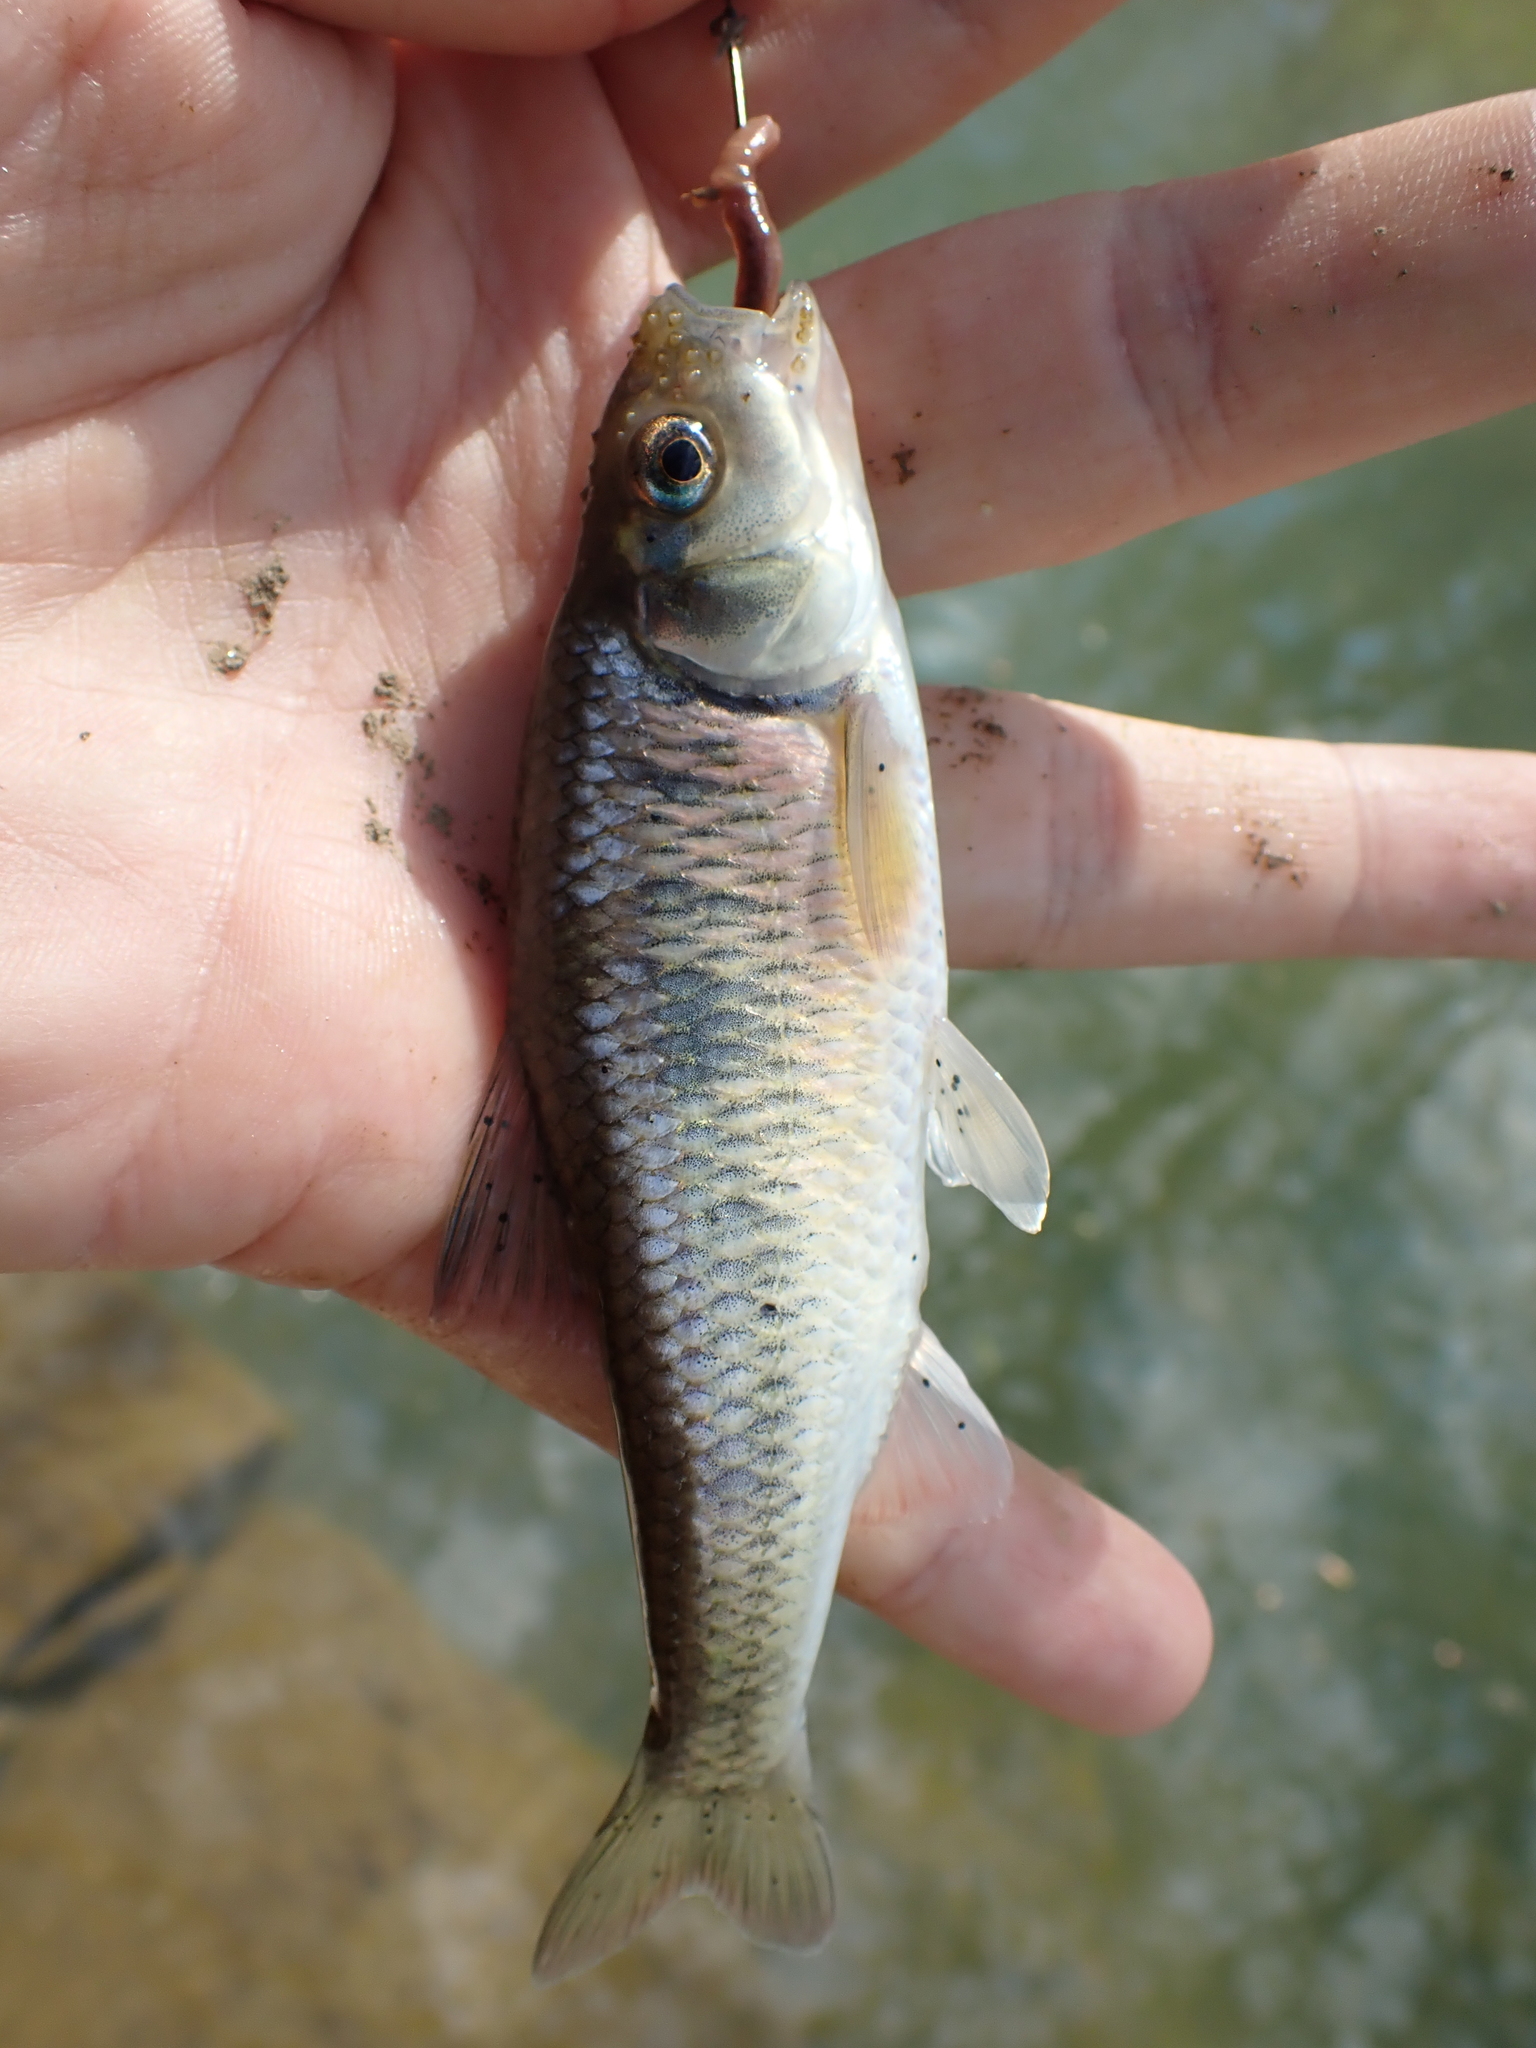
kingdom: Animalia
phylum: Chordata
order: Cypriniformes
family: Cyprinidae
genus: Luxilus
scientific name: Luxilus chrysocephalus
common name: Striped shiner
